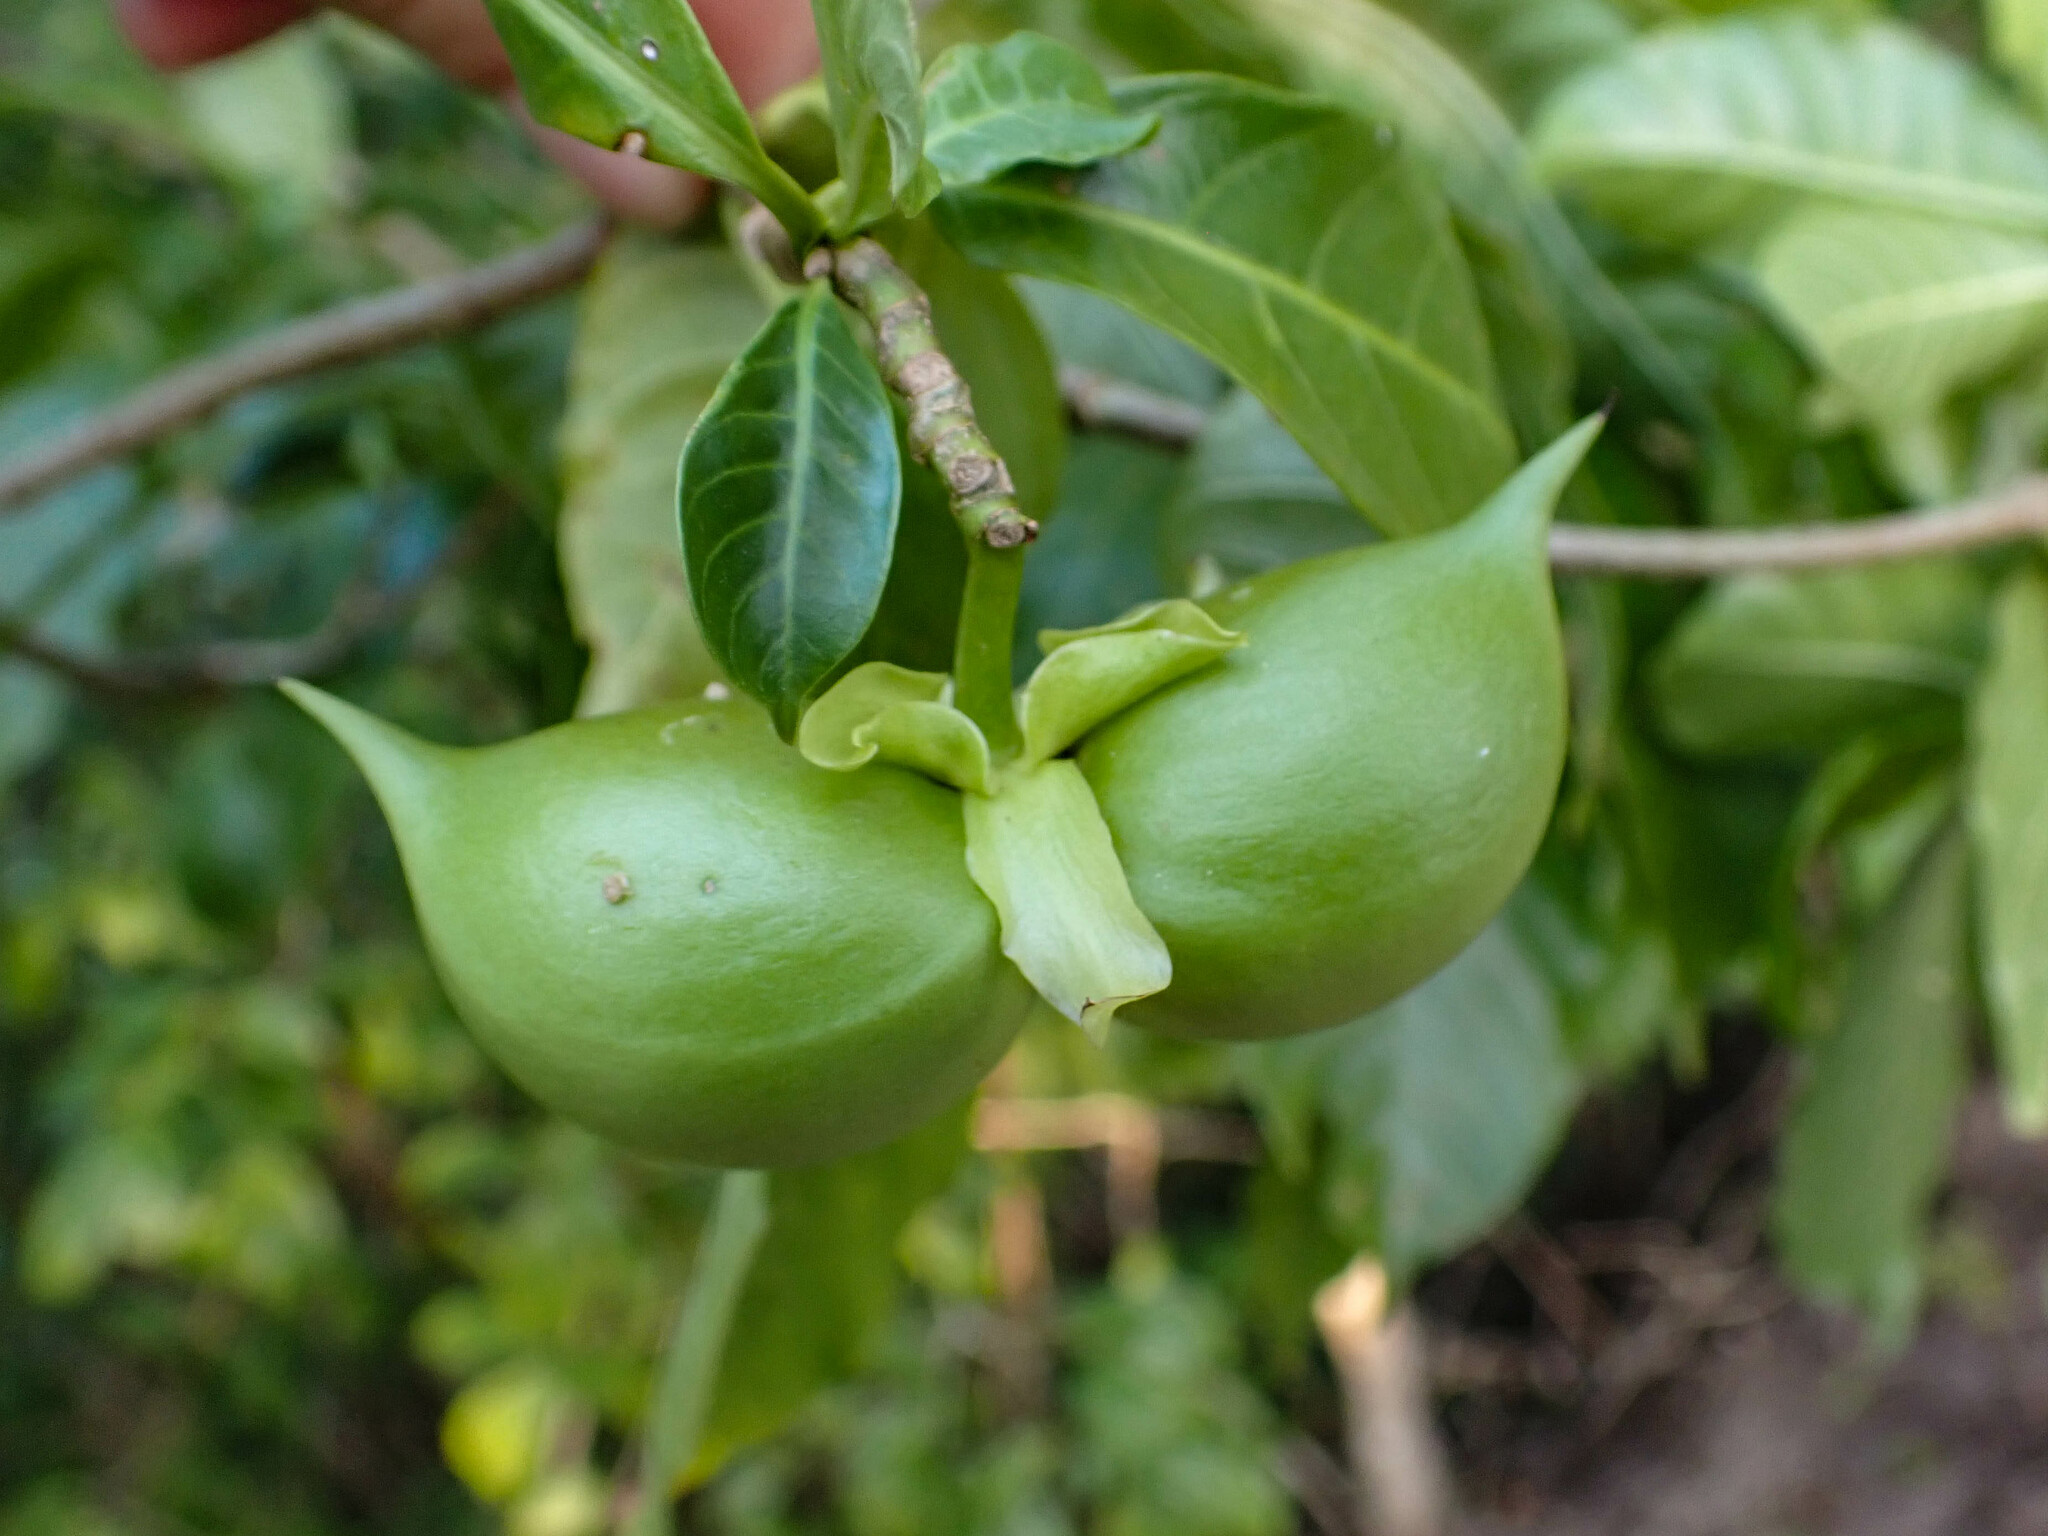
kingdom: Plantae
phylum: Tracheophyta
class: Magnoliopsida
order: Gentianales
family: Apocynaceae
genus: Tabernaemontana
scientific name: Tabernaemontana grandiflora
